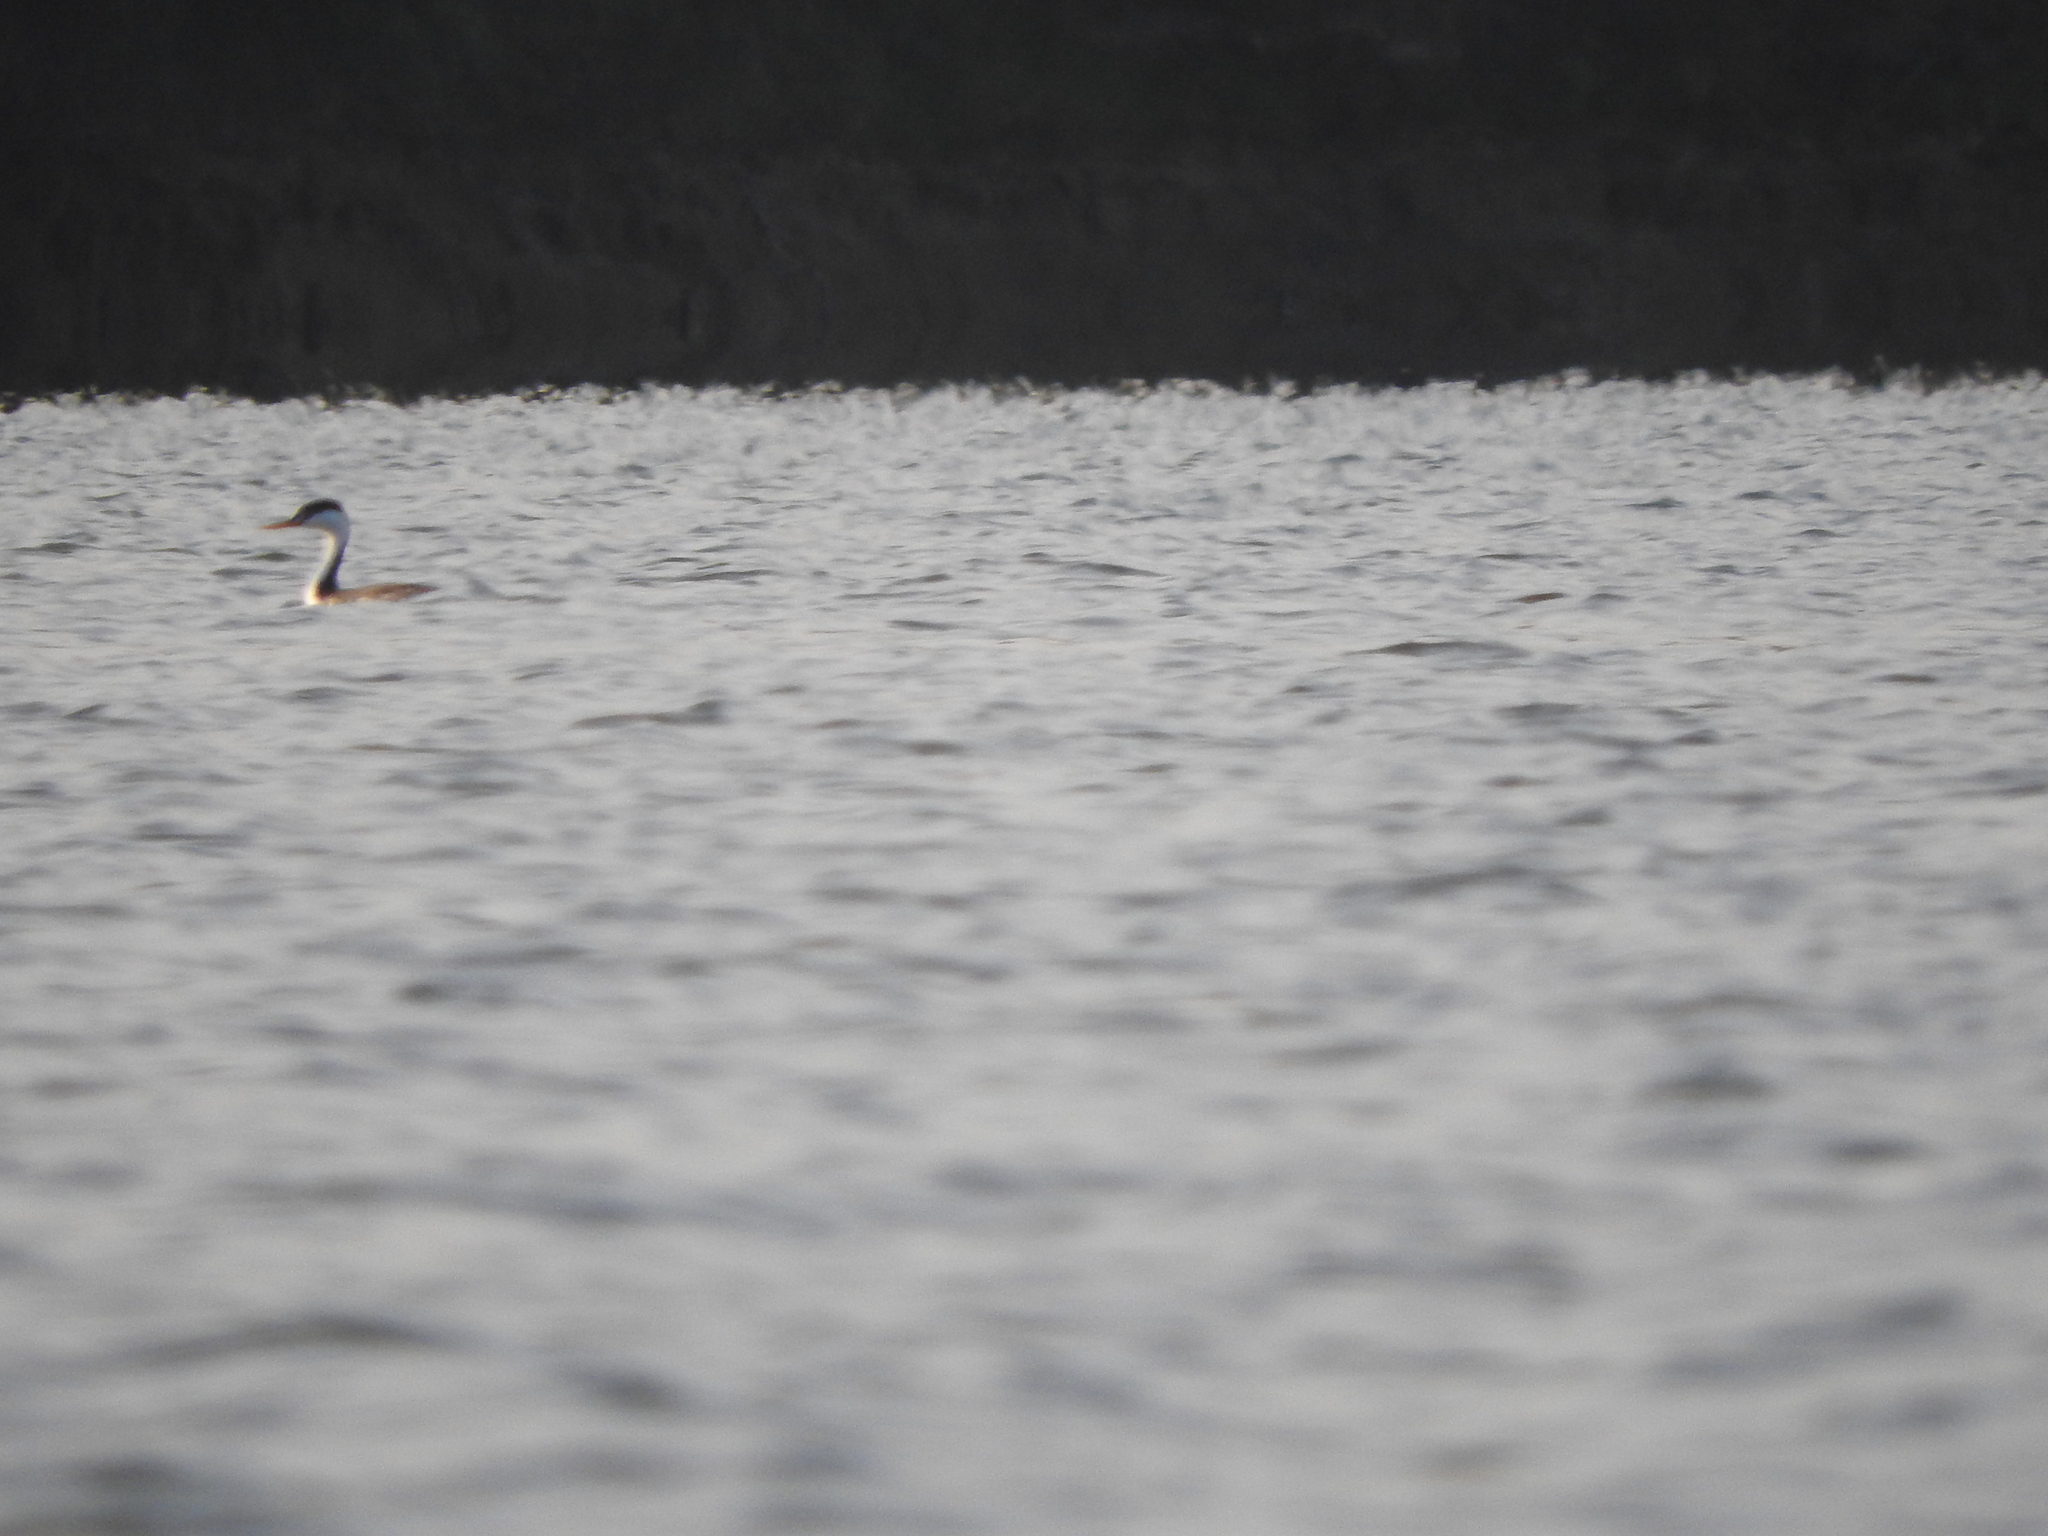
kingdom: Animalia
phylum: Chordata
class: Aves
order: Podicipediformes
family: Podicipedidae
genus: Aechmophorus
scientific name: Aechmophorus clarkii
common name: Clark's grebe
